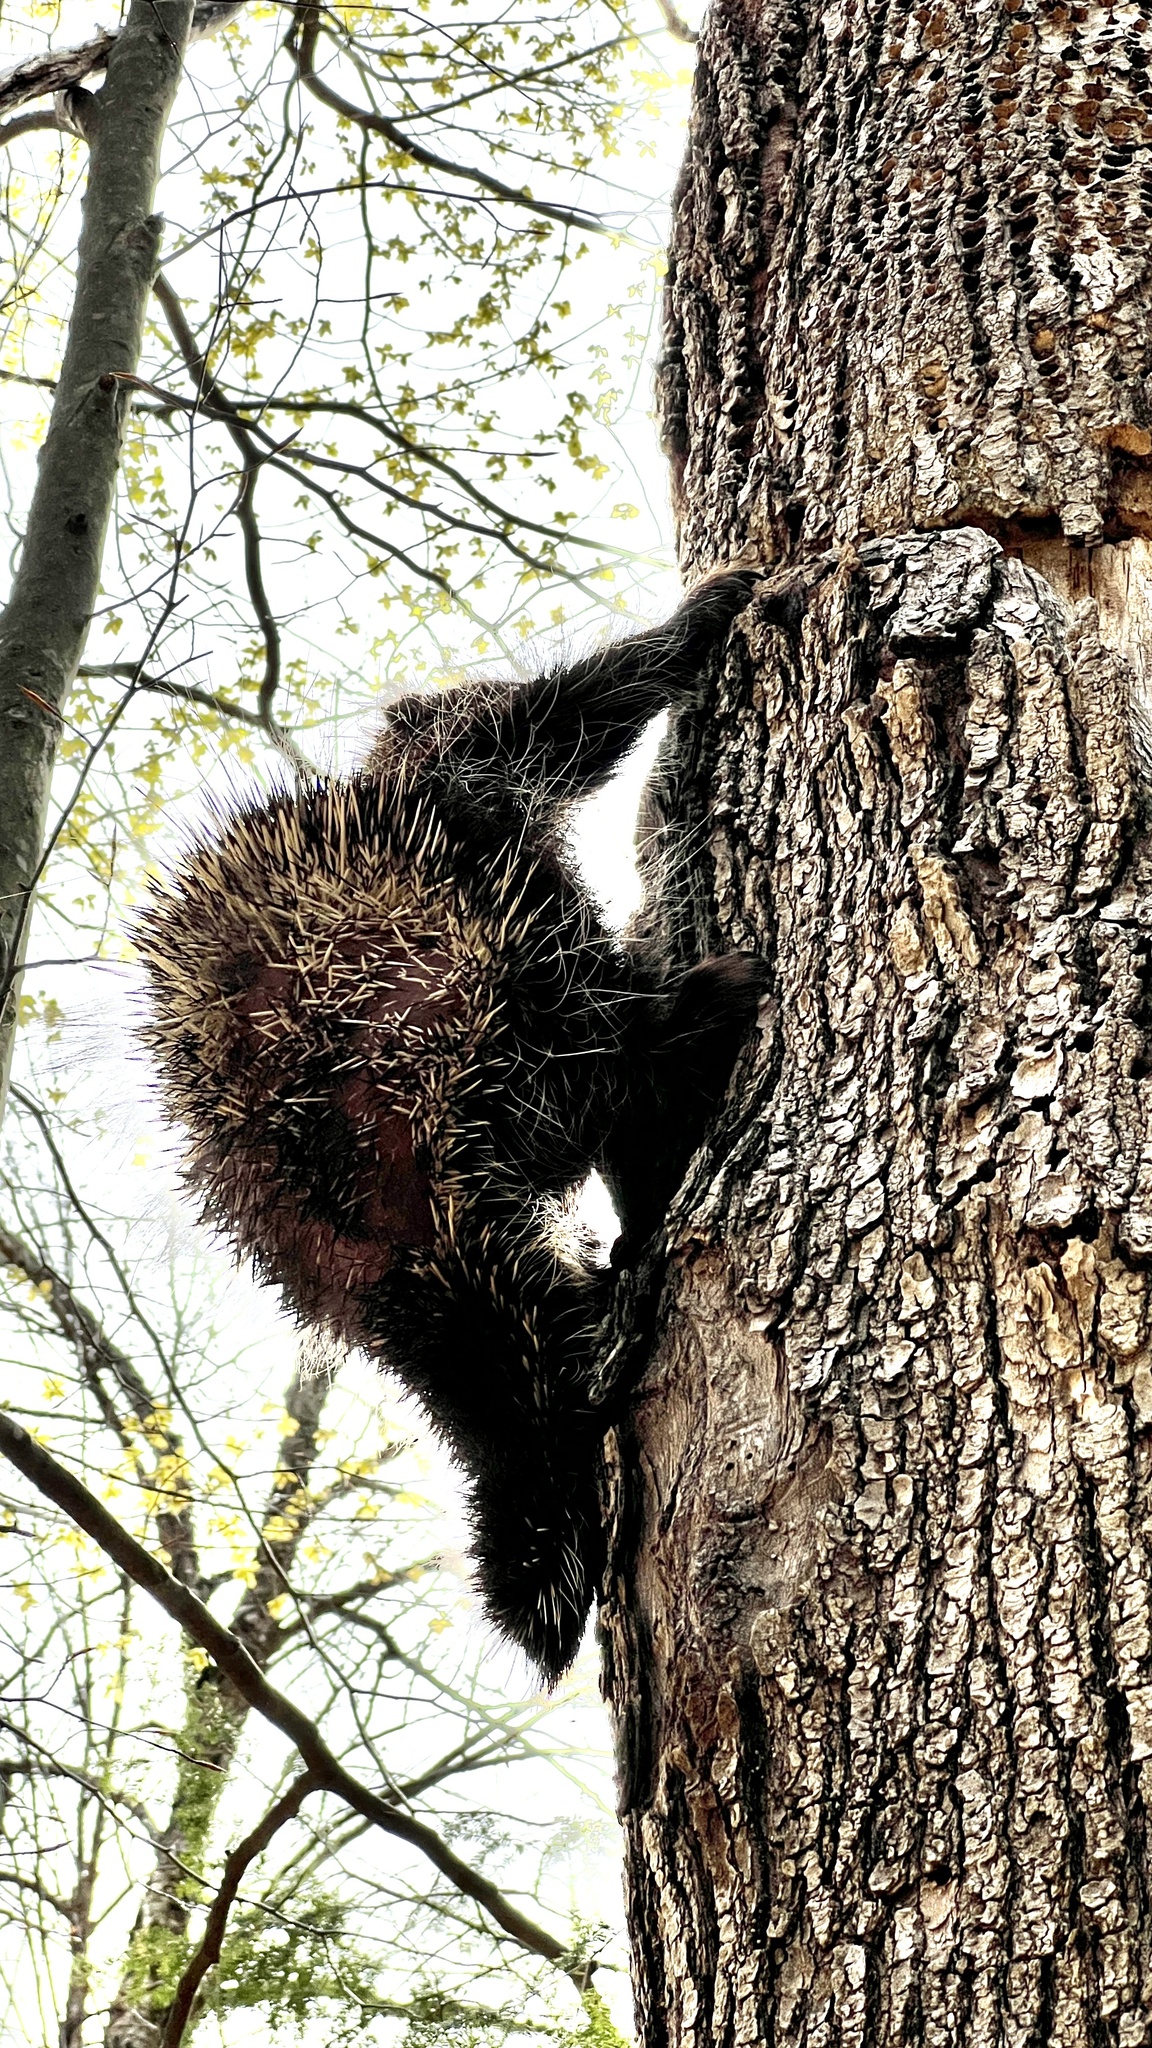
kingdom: Animalia
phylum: Chordata
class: Mammalia
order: Rodentia
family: Erethizontidae
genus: Erethizon
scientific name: Erethizon dorsatus
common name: North american porcupine
